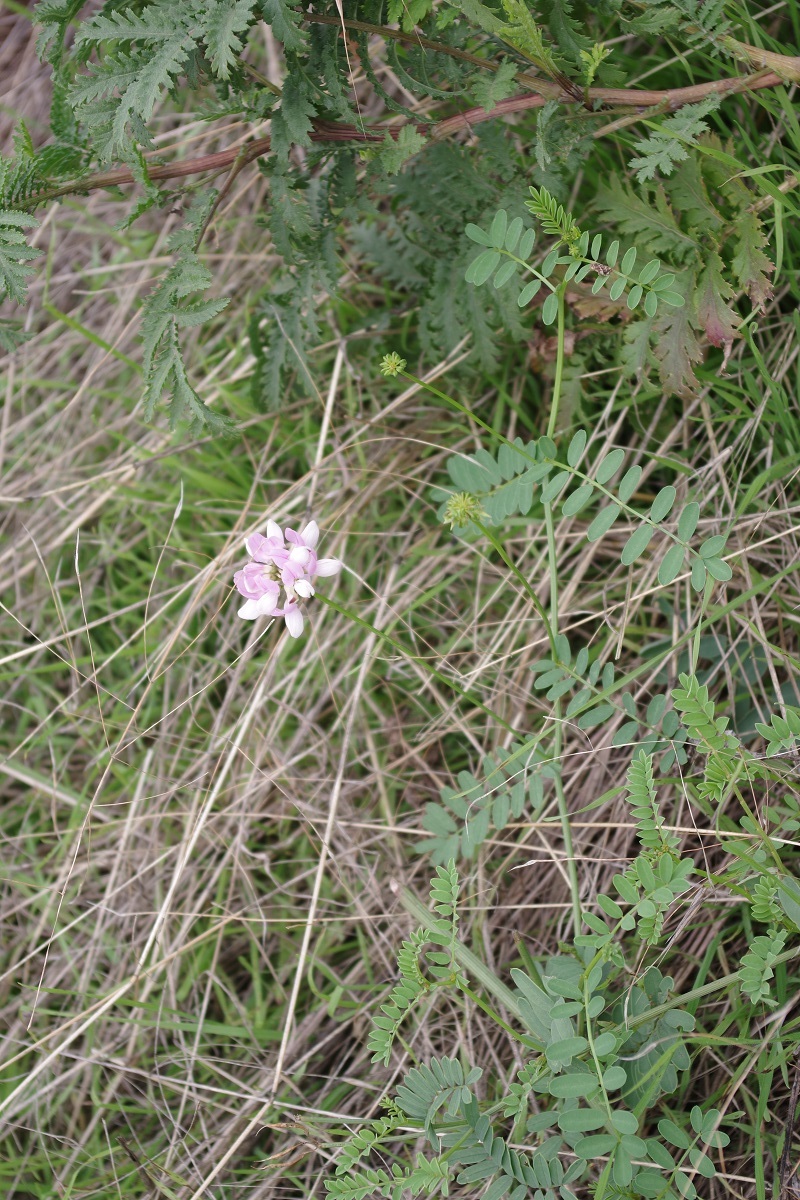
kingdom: Plantae
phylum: Tracheophyta
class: Magnoliopsida
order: Fabales
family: Fabaceae
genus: Coronilla
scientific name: Coronilla varia
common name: Crownvetch
